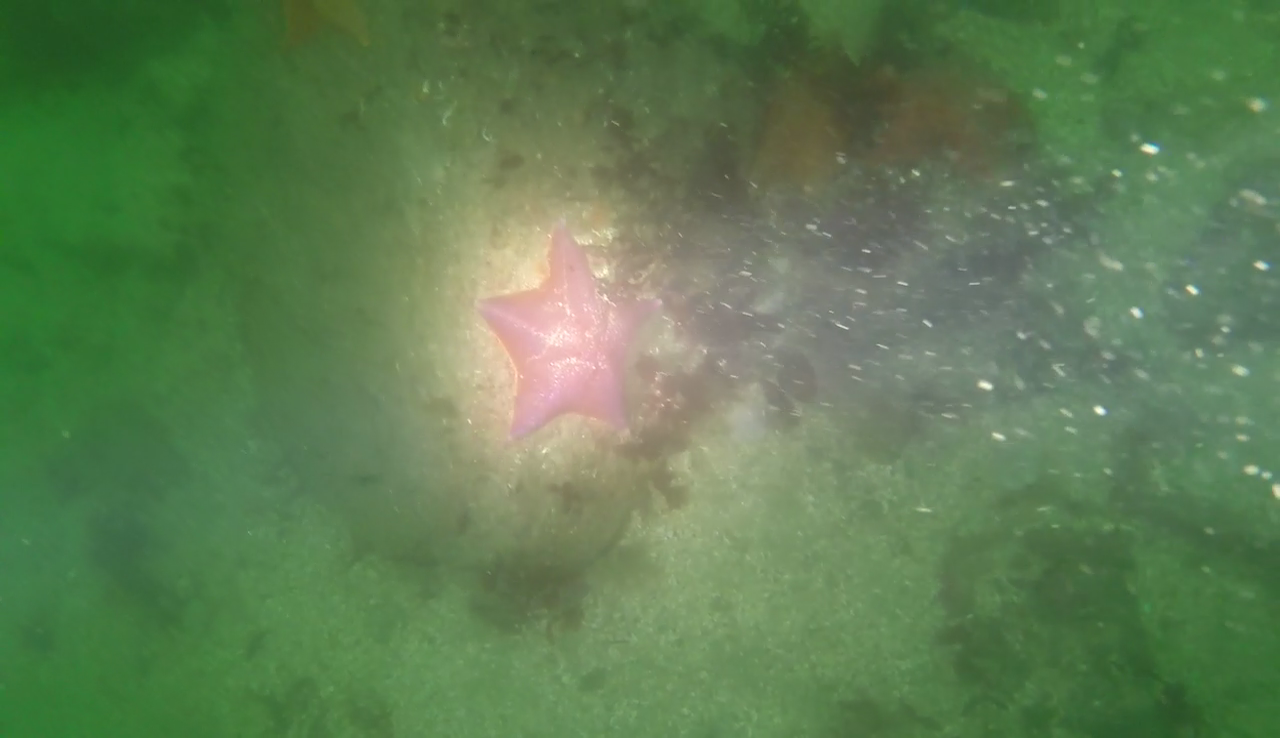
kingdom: Animalia
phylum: Echinodermata
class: Asteroidea
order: Valvatida
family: Asterinidae
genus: Patiria
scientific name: Patiria miniata
